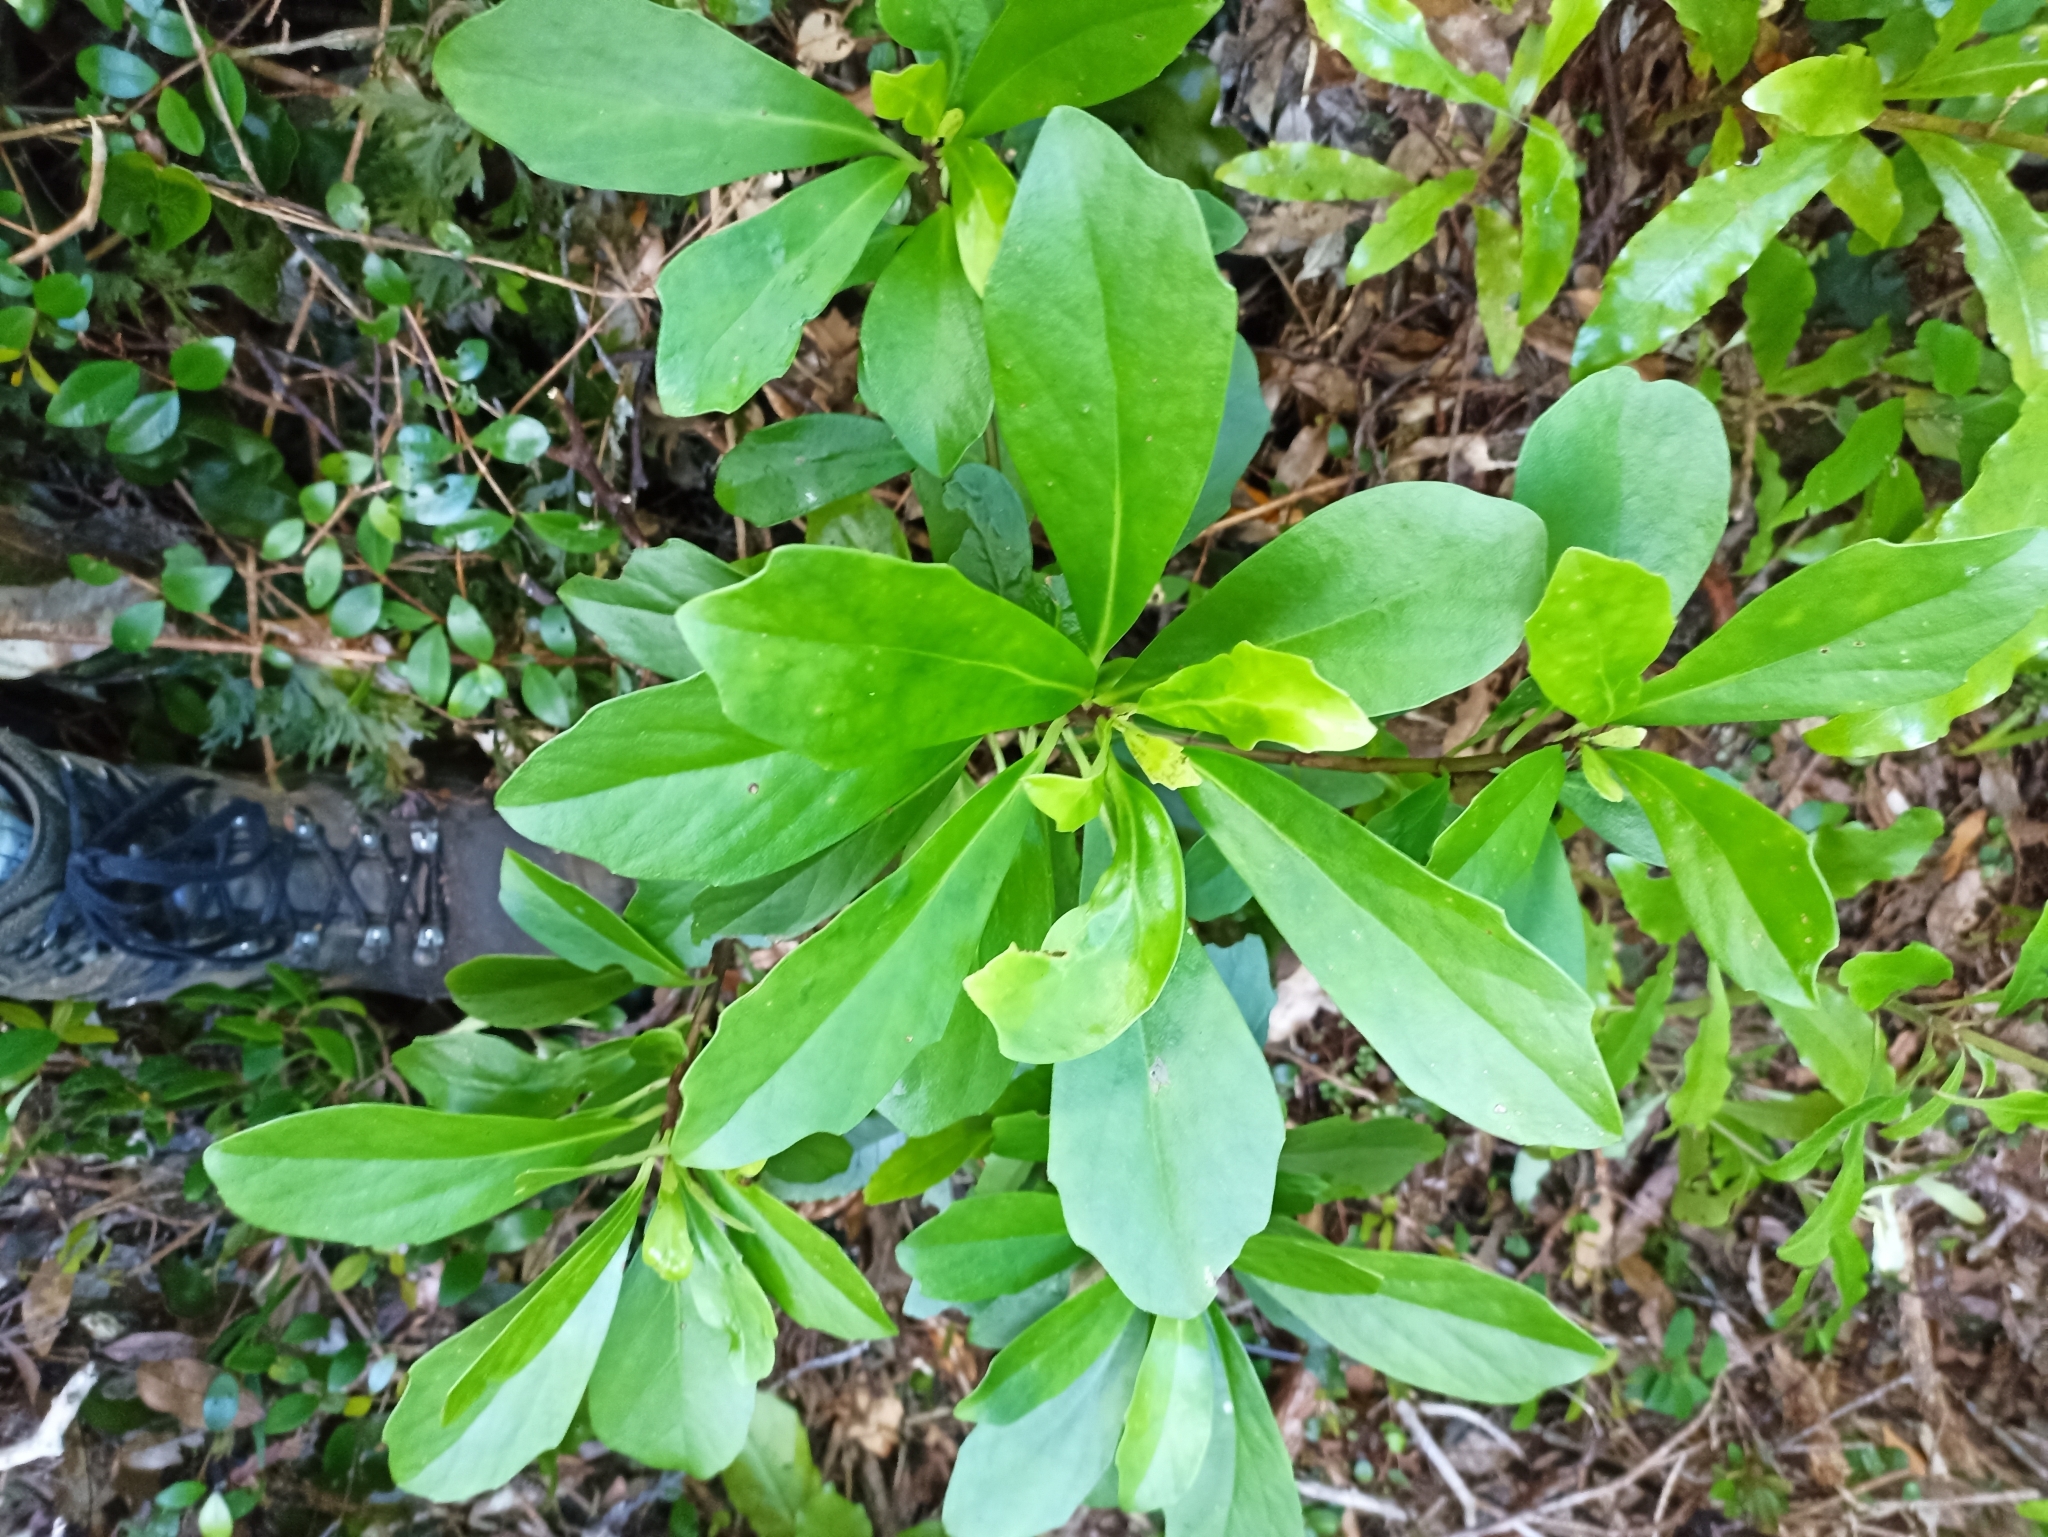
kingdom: Plantae
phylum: Tracheophyta
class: Magnoliopsida
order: Asterales
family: Asteraceae
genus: Brachyglottis
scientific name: Brachyglottis kirkii
